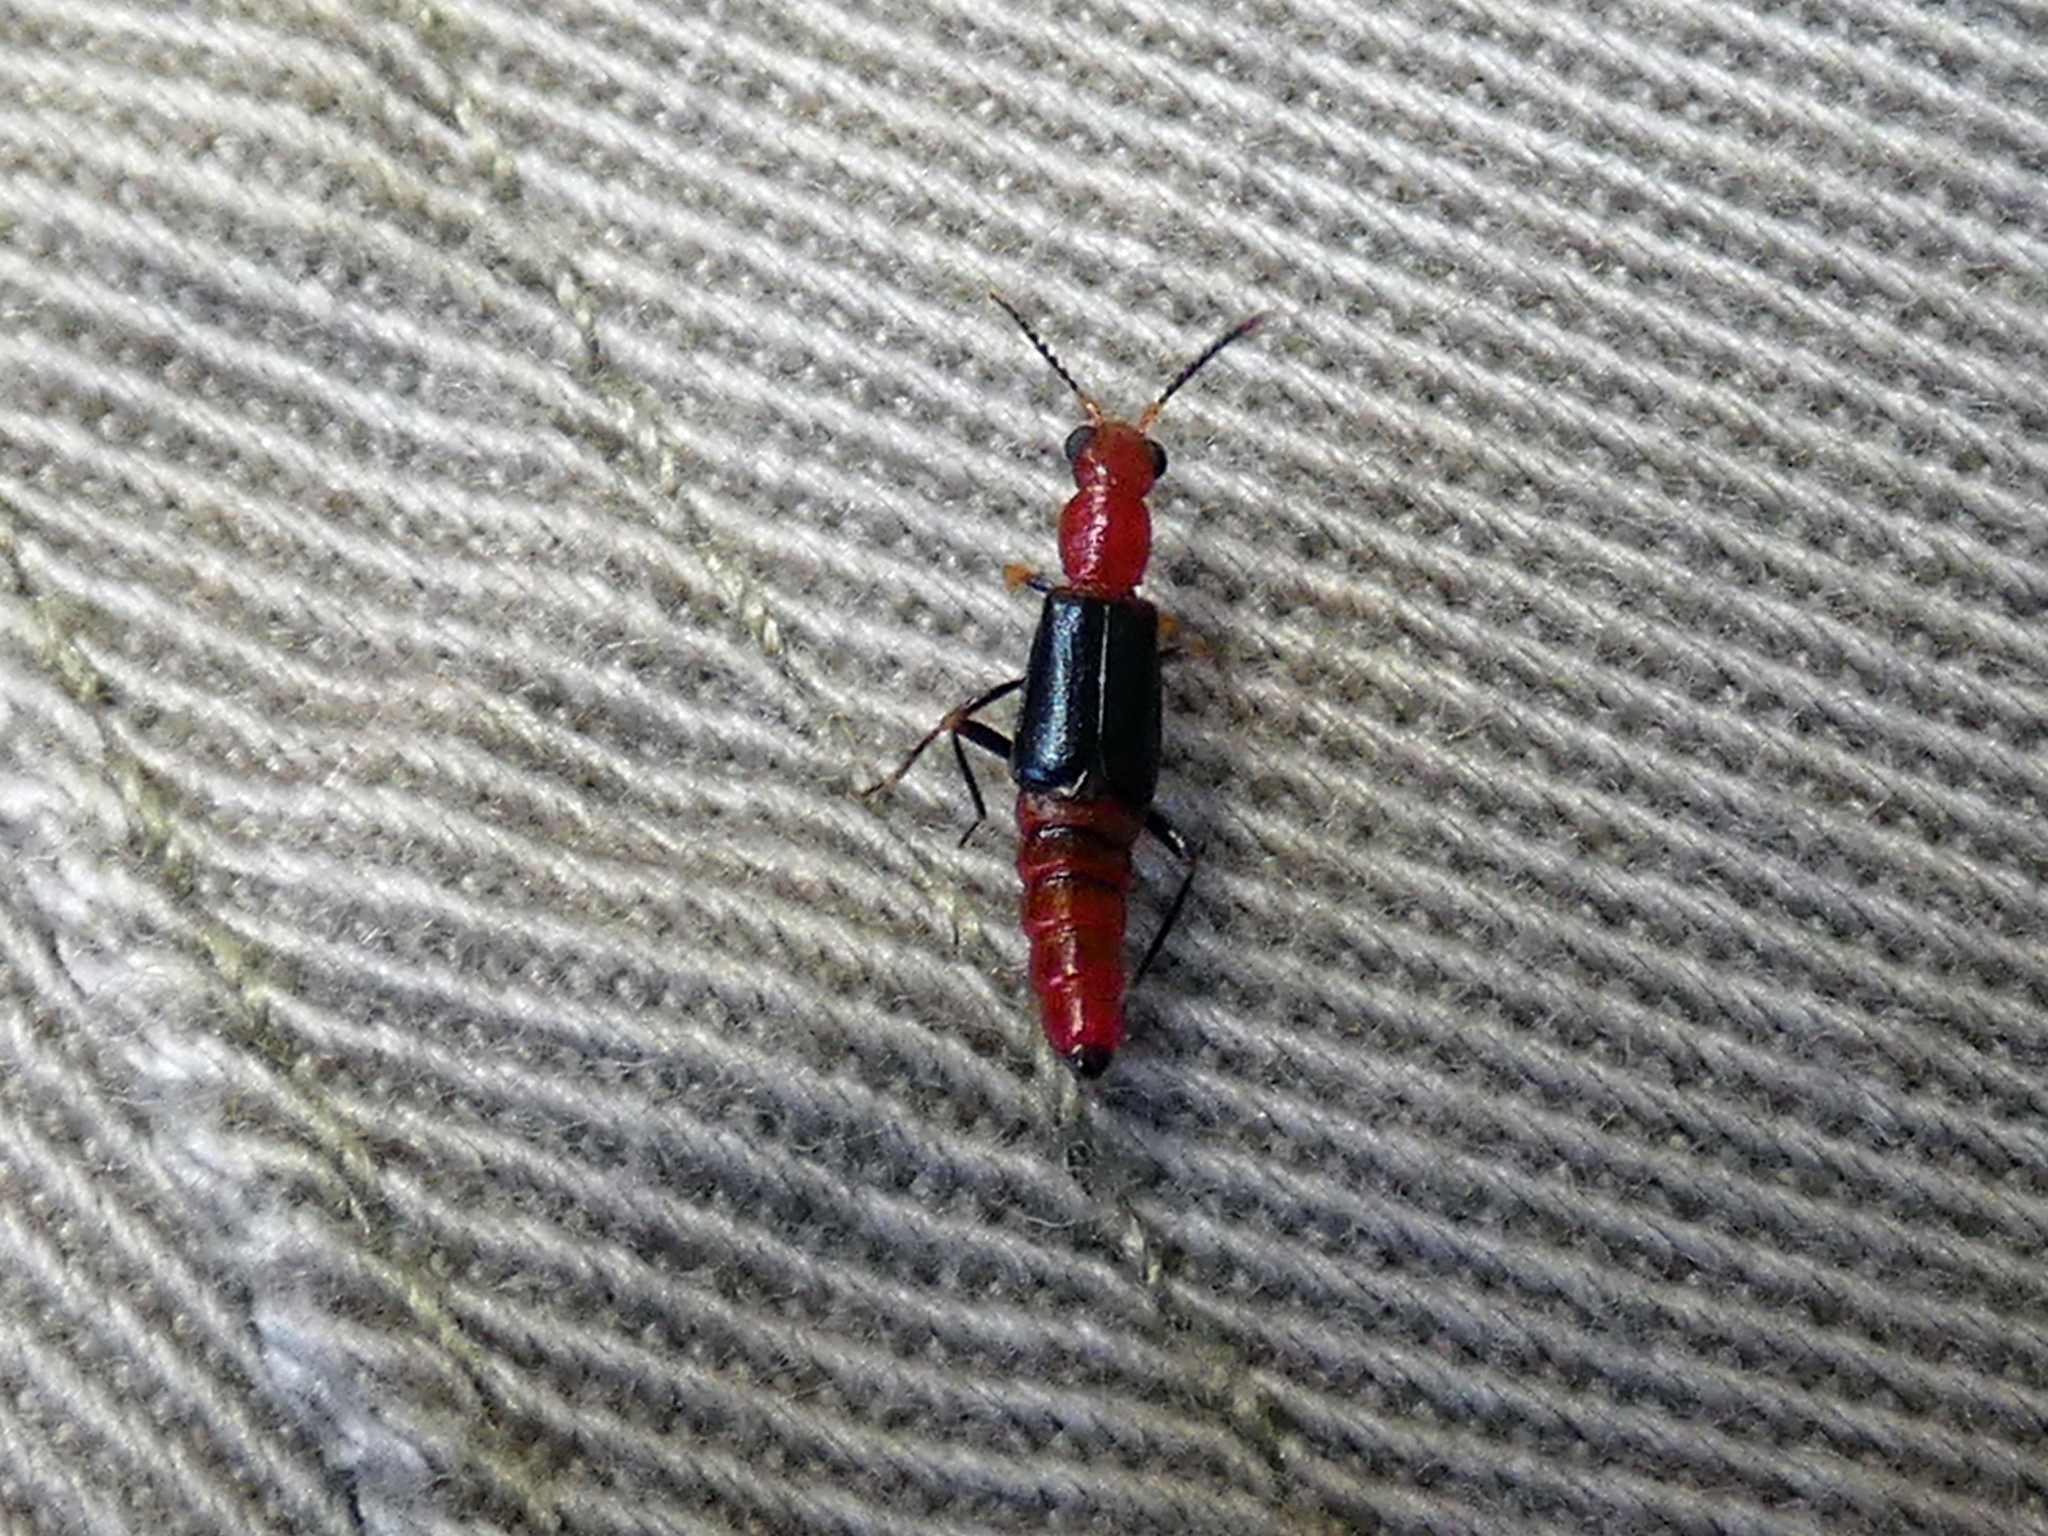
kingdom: Animalia
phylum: Arthropoda
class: Insecta
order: Coleoptera
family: Melyridae
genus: Carphurus
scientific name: Carphurus
